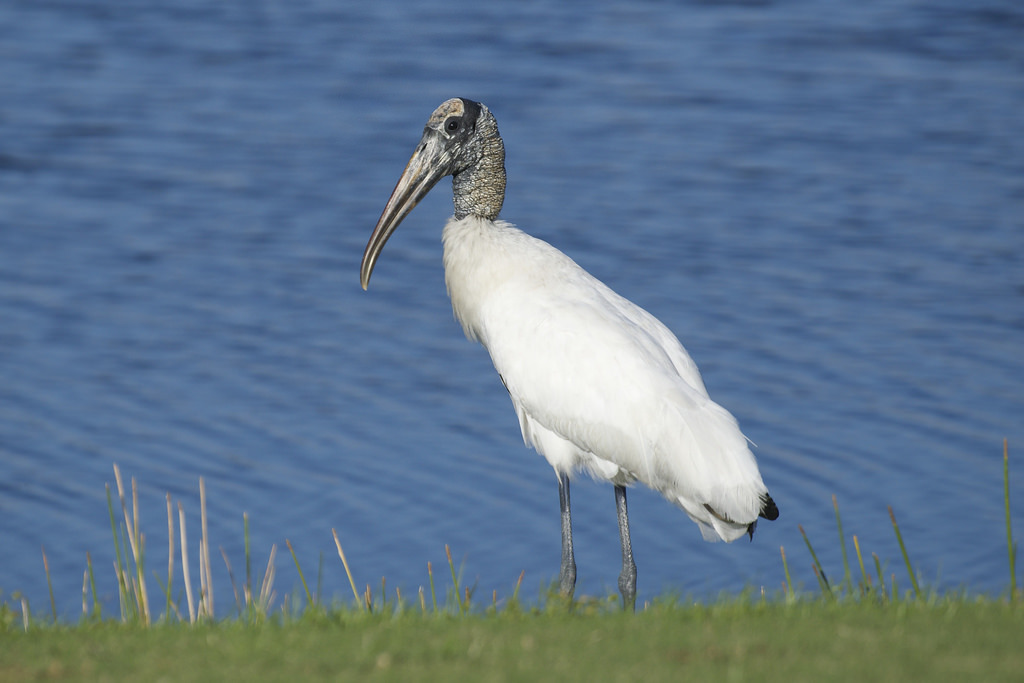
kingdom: Animalia
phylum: Chordata
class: Aves
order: Ciconiiformes
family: Ciconiidae
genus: Mycteria
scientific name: Mycteria americana
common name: Wood stork
